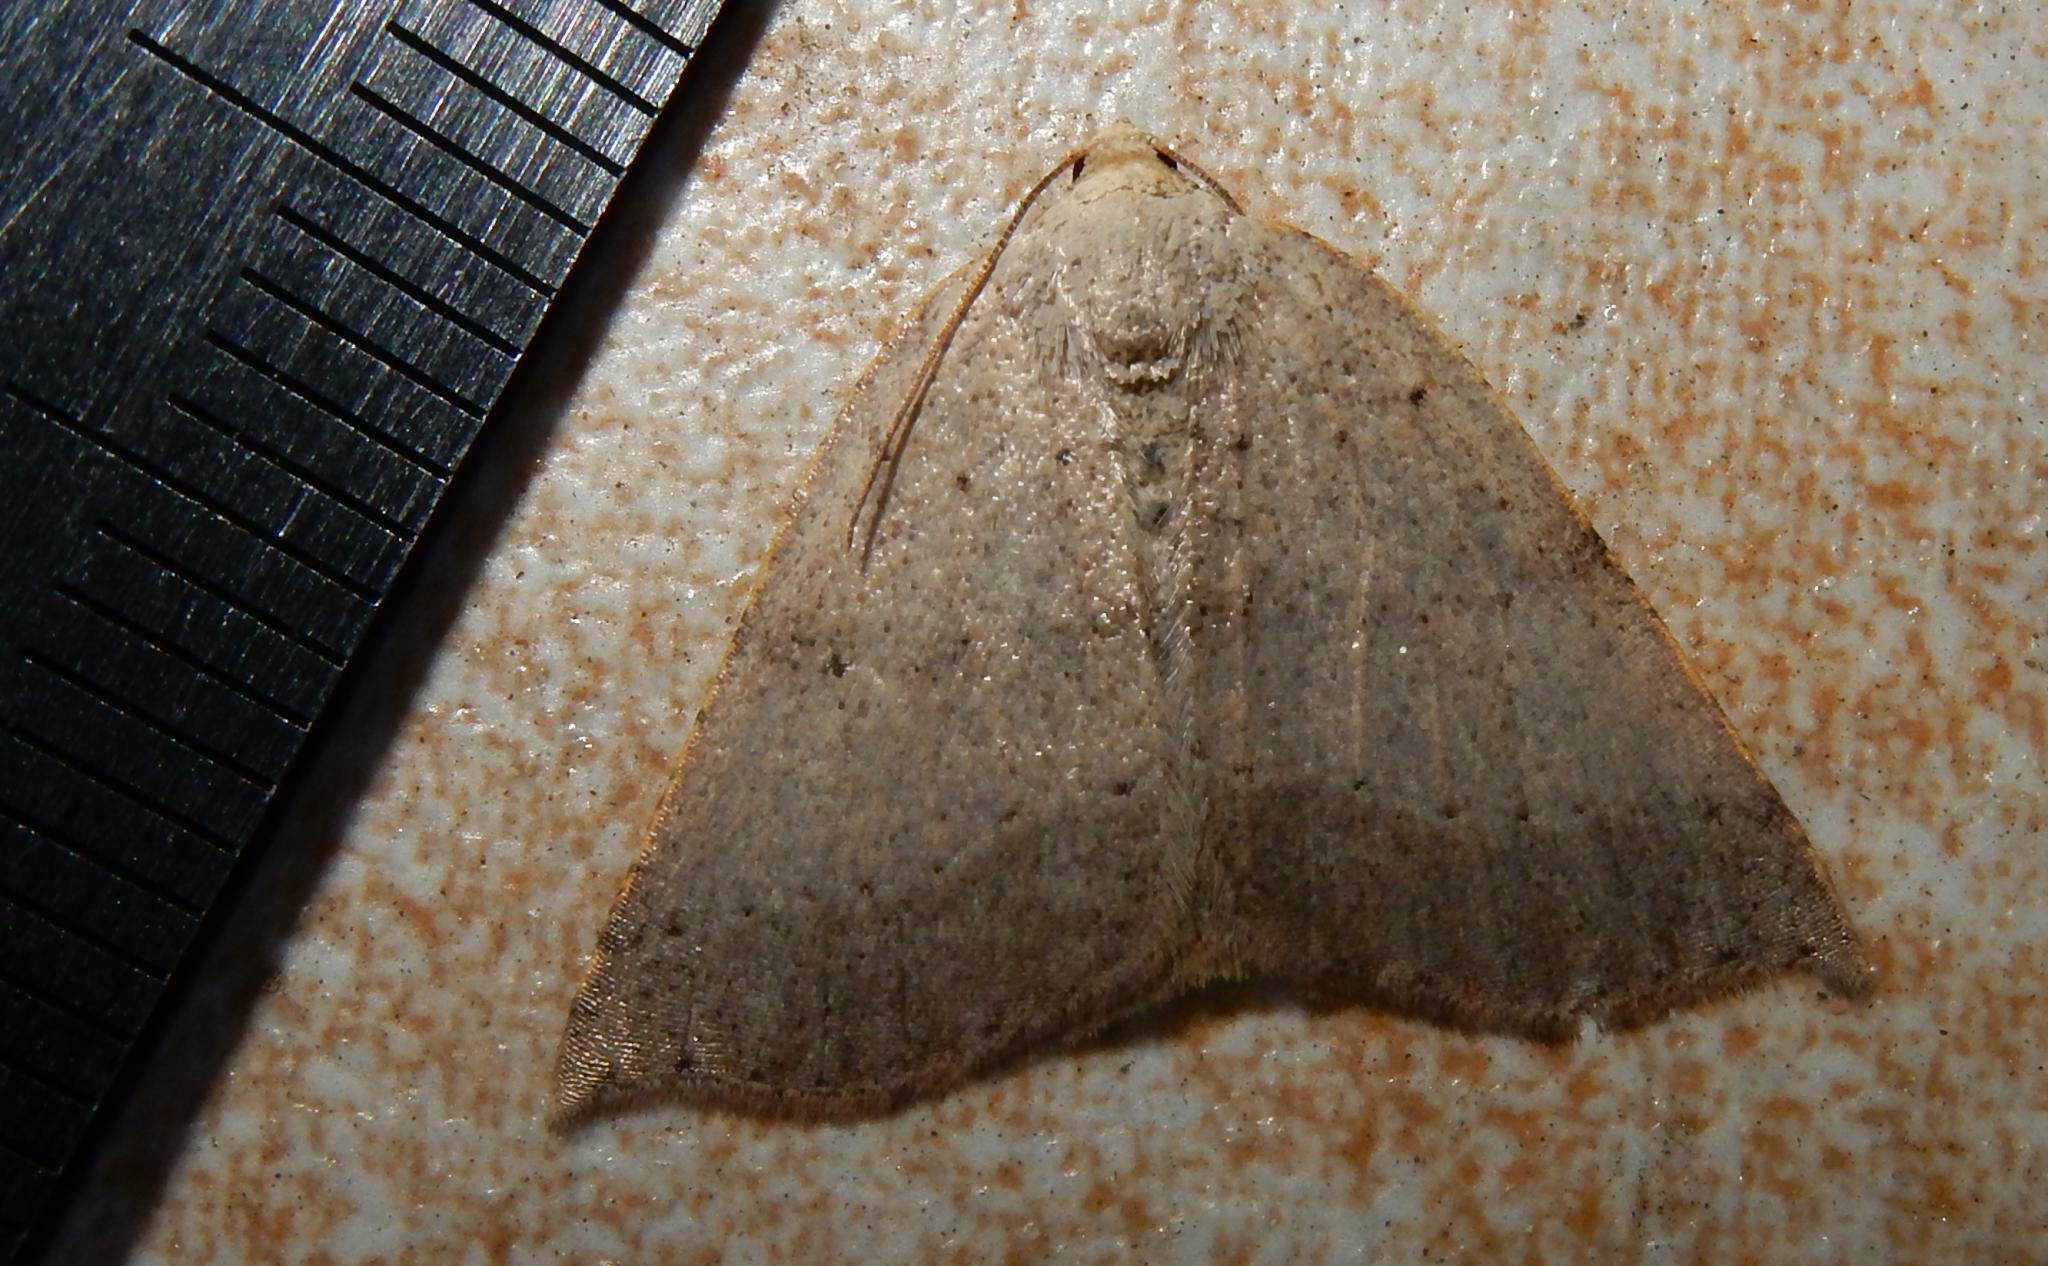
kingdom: Animalia
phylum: Arthropoda
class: Insecta
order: Lepidoptera
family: Geometridae
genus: Palaeaspilates
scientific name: Palaeaspilates inoffensa
